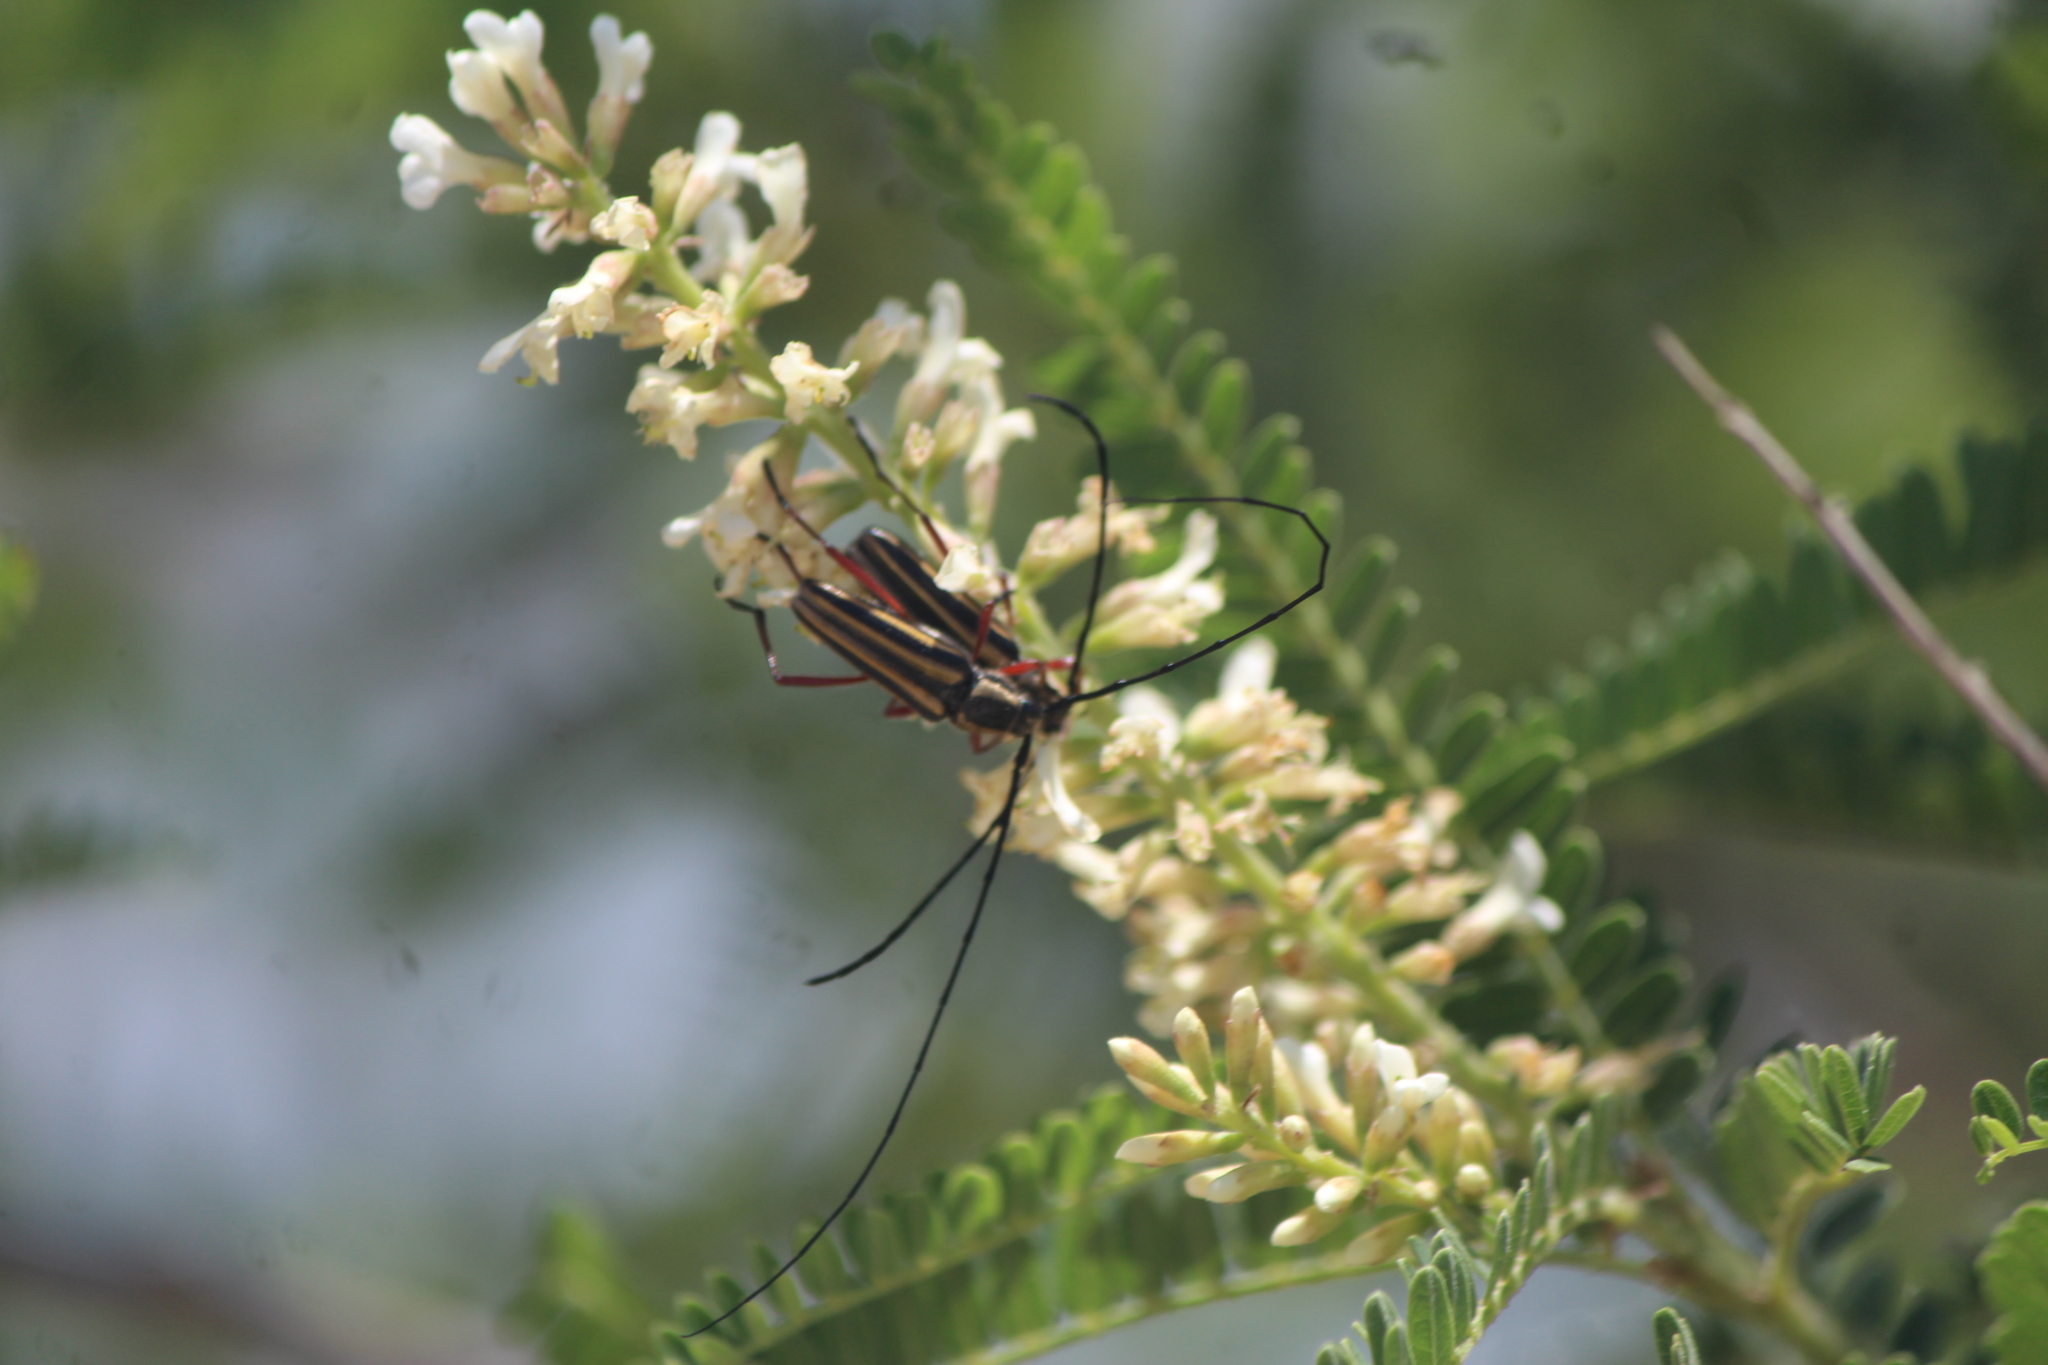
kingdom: Animalia
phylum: Arthropoda
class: Insecta
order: Coleoptera
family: Cerambycidae
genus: Sphaenothecus
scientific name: Sphaenothecus bilineatus
